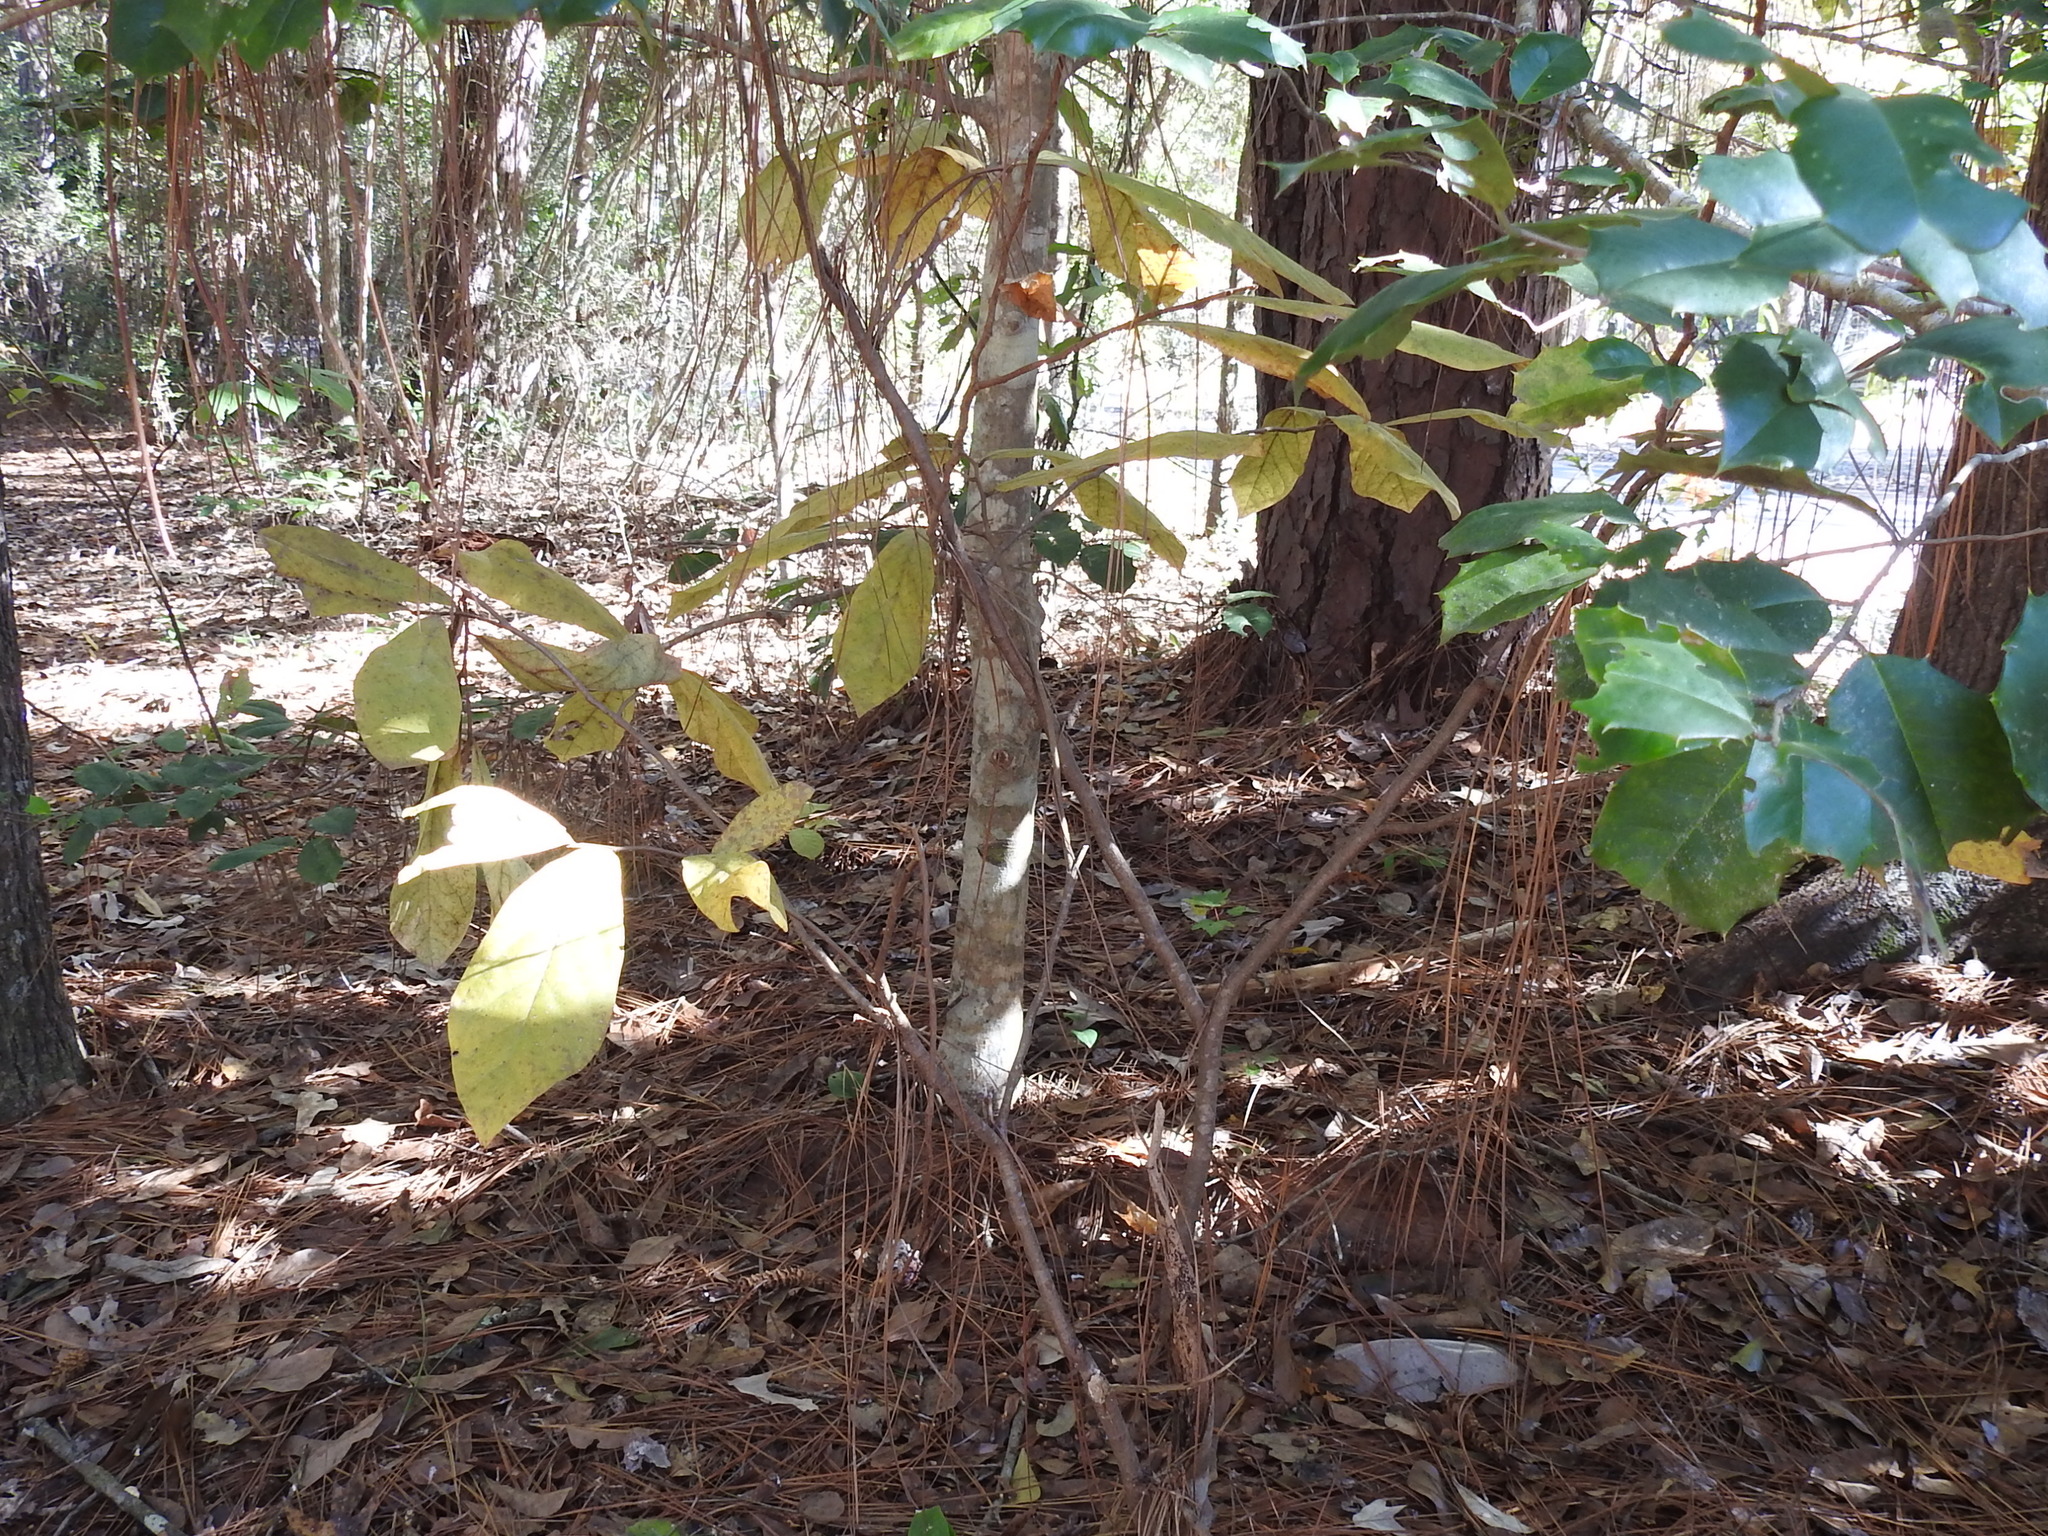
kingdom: Plantae
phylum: Tracheophyta
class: Magnoliopsida
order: Magnoliales
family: Annonaceae
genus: Asimina
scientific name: Asimina parviflora
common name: Dwarf pawpaw
